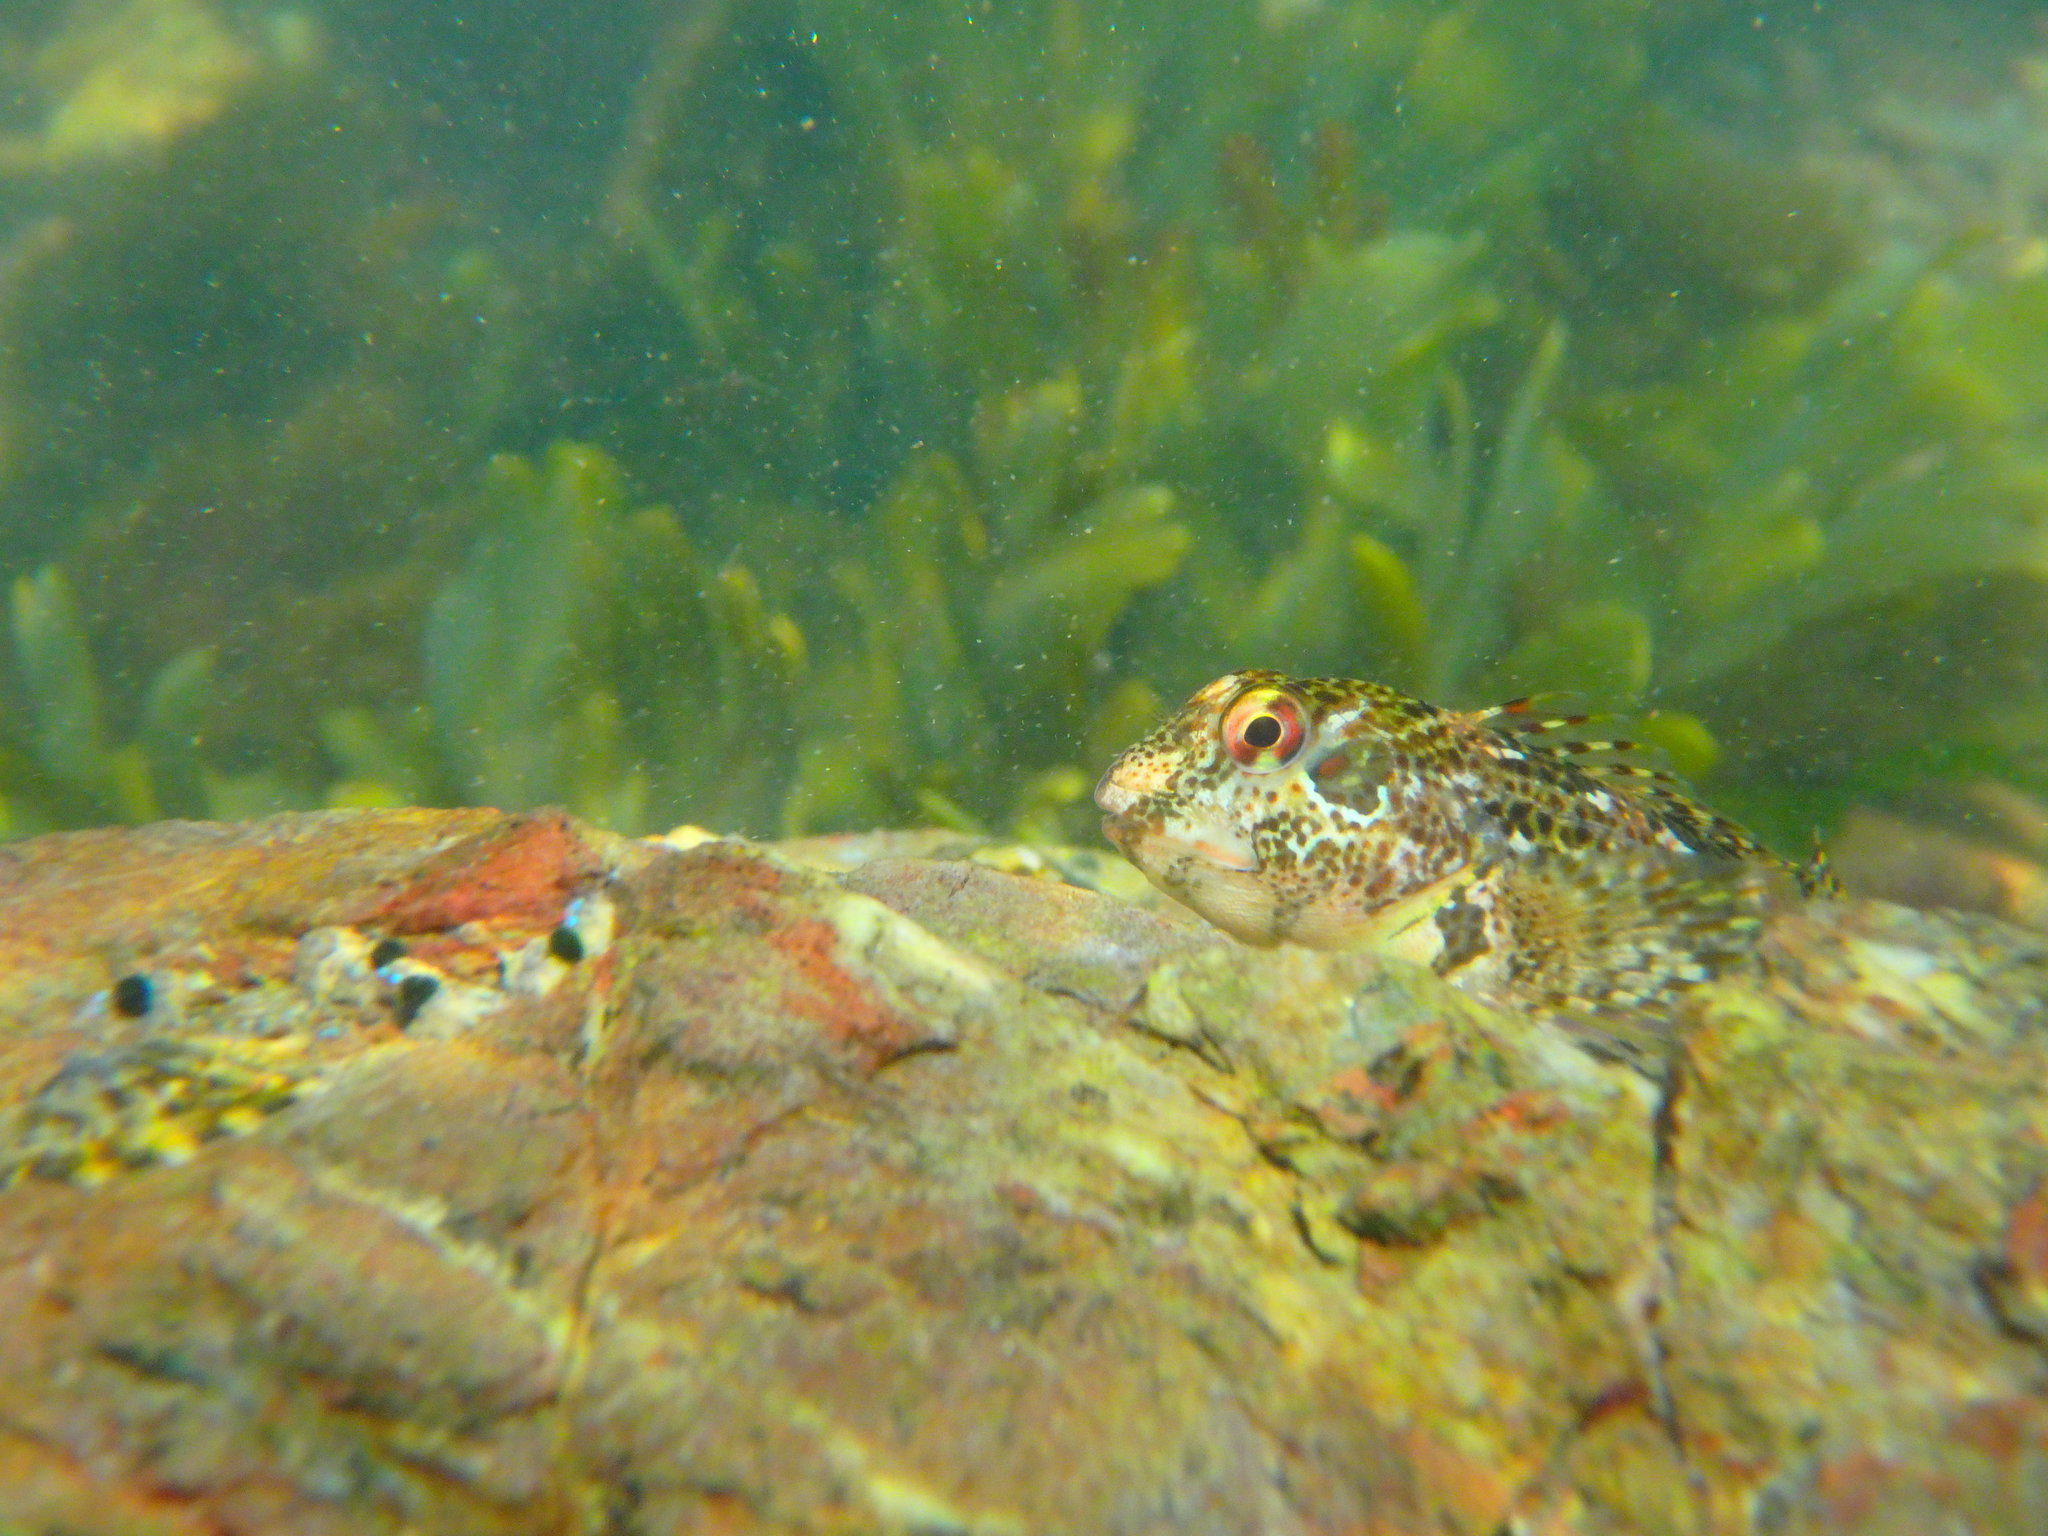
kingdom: Animalia
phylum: Chordata
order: Perciformes
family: Blenniidae
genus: Lipophrys
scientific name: Lipophrys pholis
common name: Shanny
